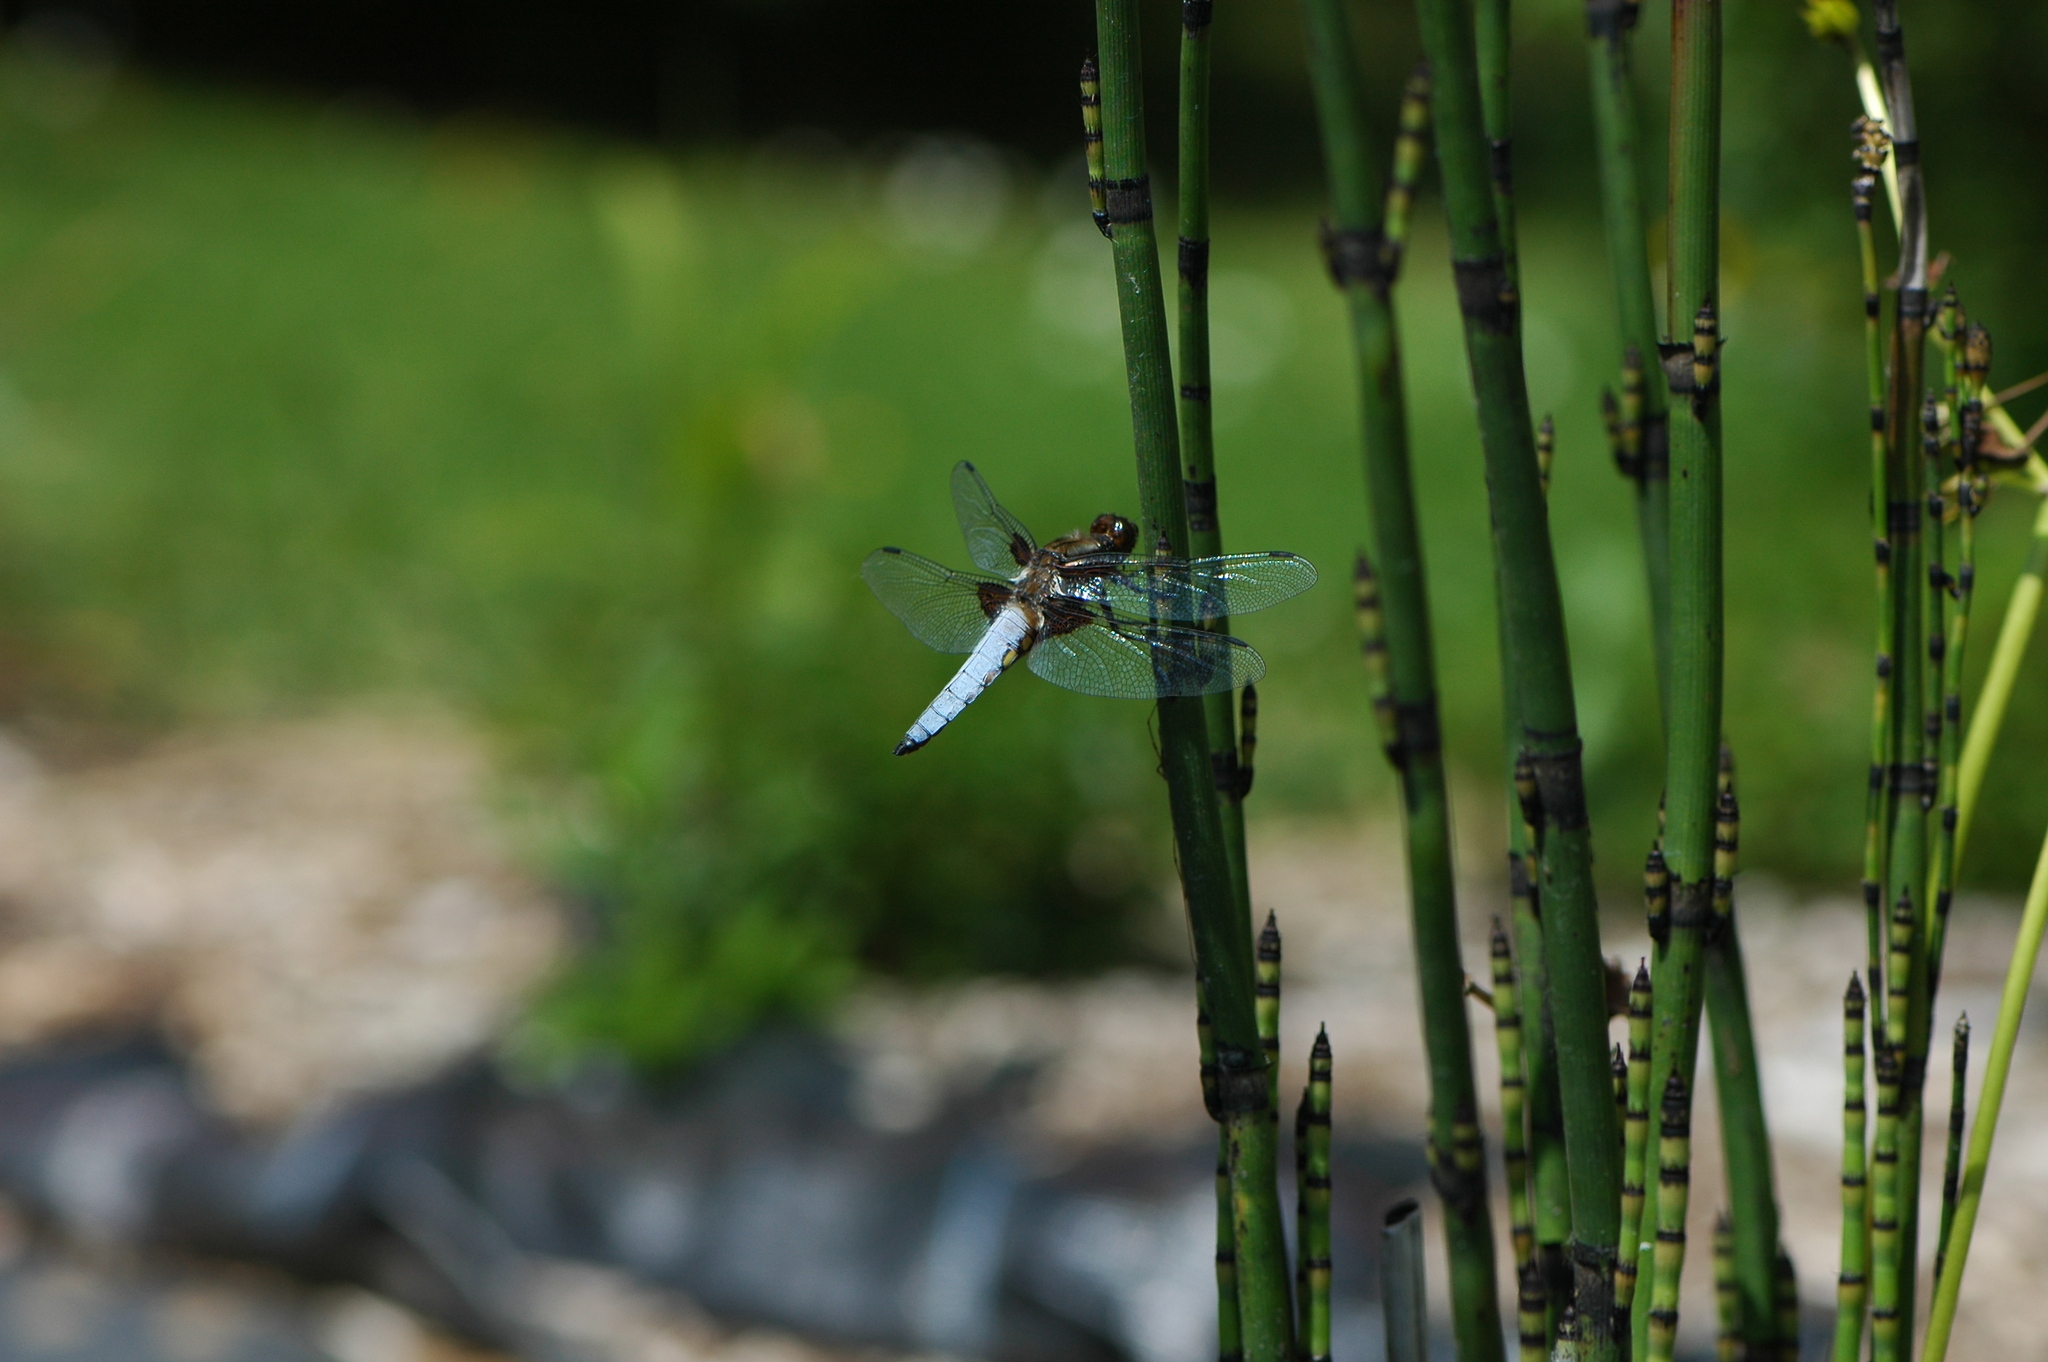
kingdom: Animalia
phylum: Arthropoda
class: Insecta
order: Odonata
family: Libellulidae
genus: Libellula
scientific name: Libellula depressa
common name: Broad-bodied chaser
